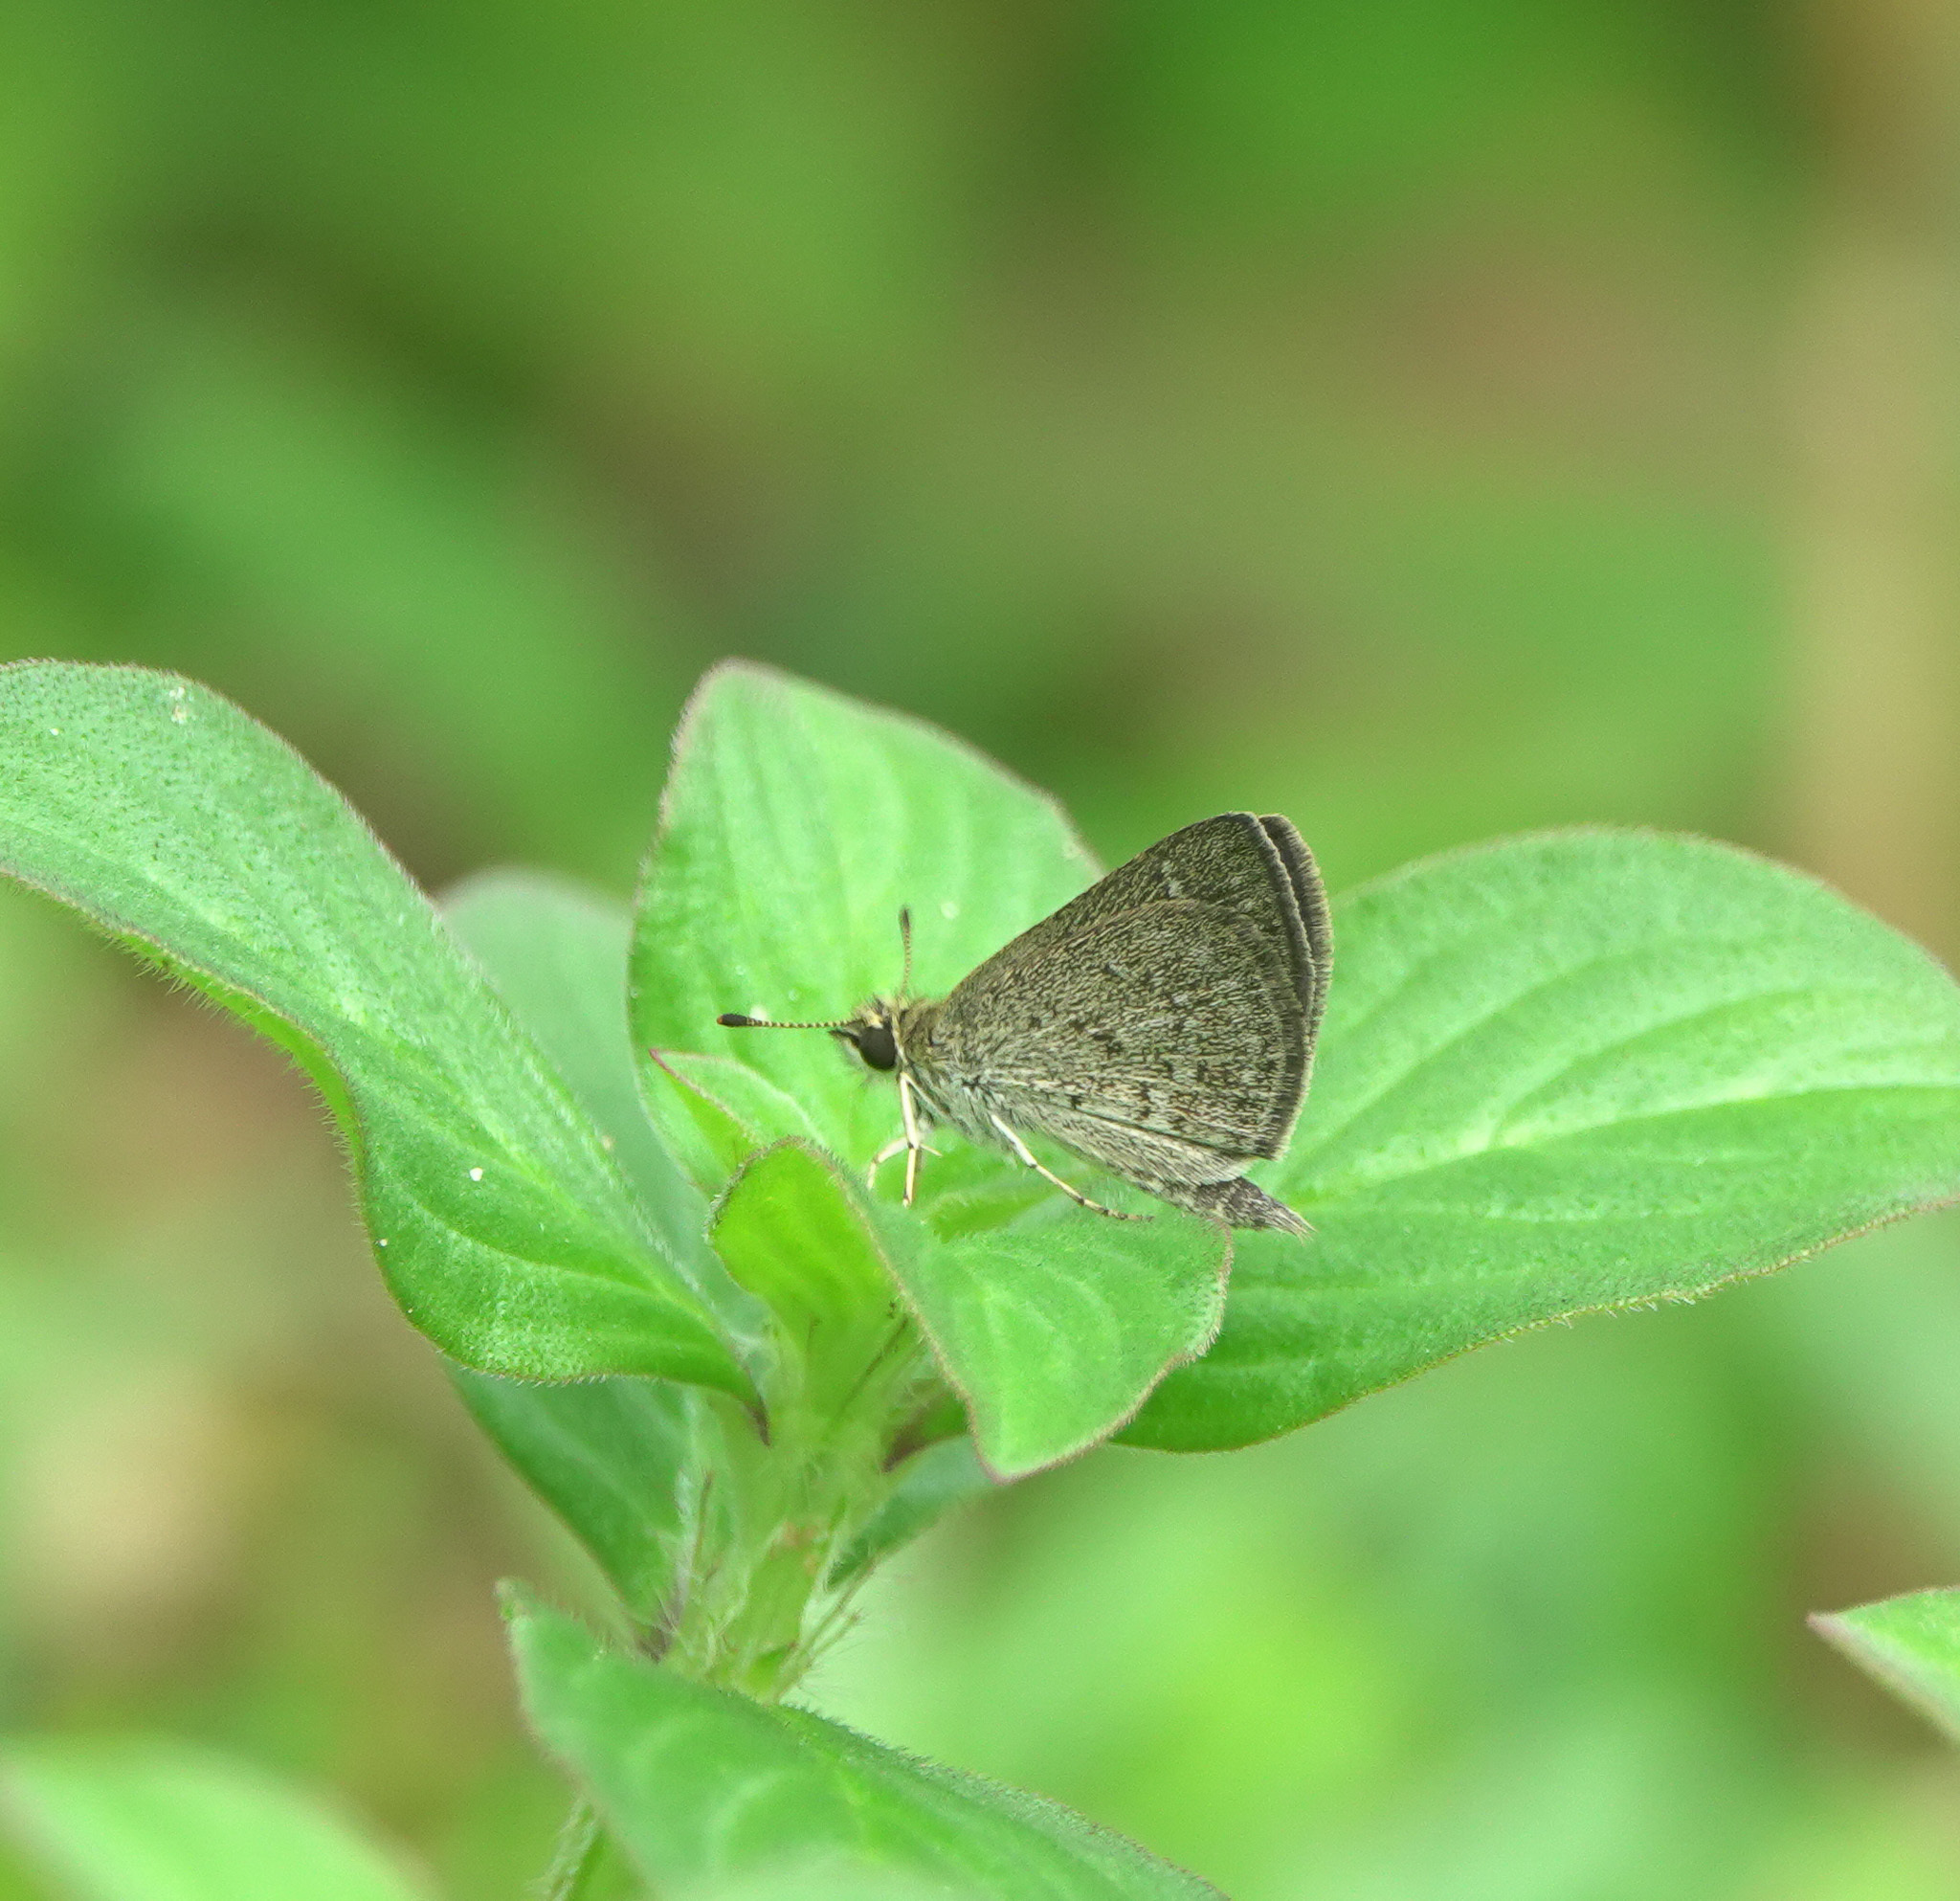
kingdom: Animalia
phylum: Arthropoda
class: Insecta
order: Lepidoptera
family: Hesperiidae
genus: Aeromachus
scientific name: Aeromachus pygmaeus
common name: Pygmy scrub hopper
